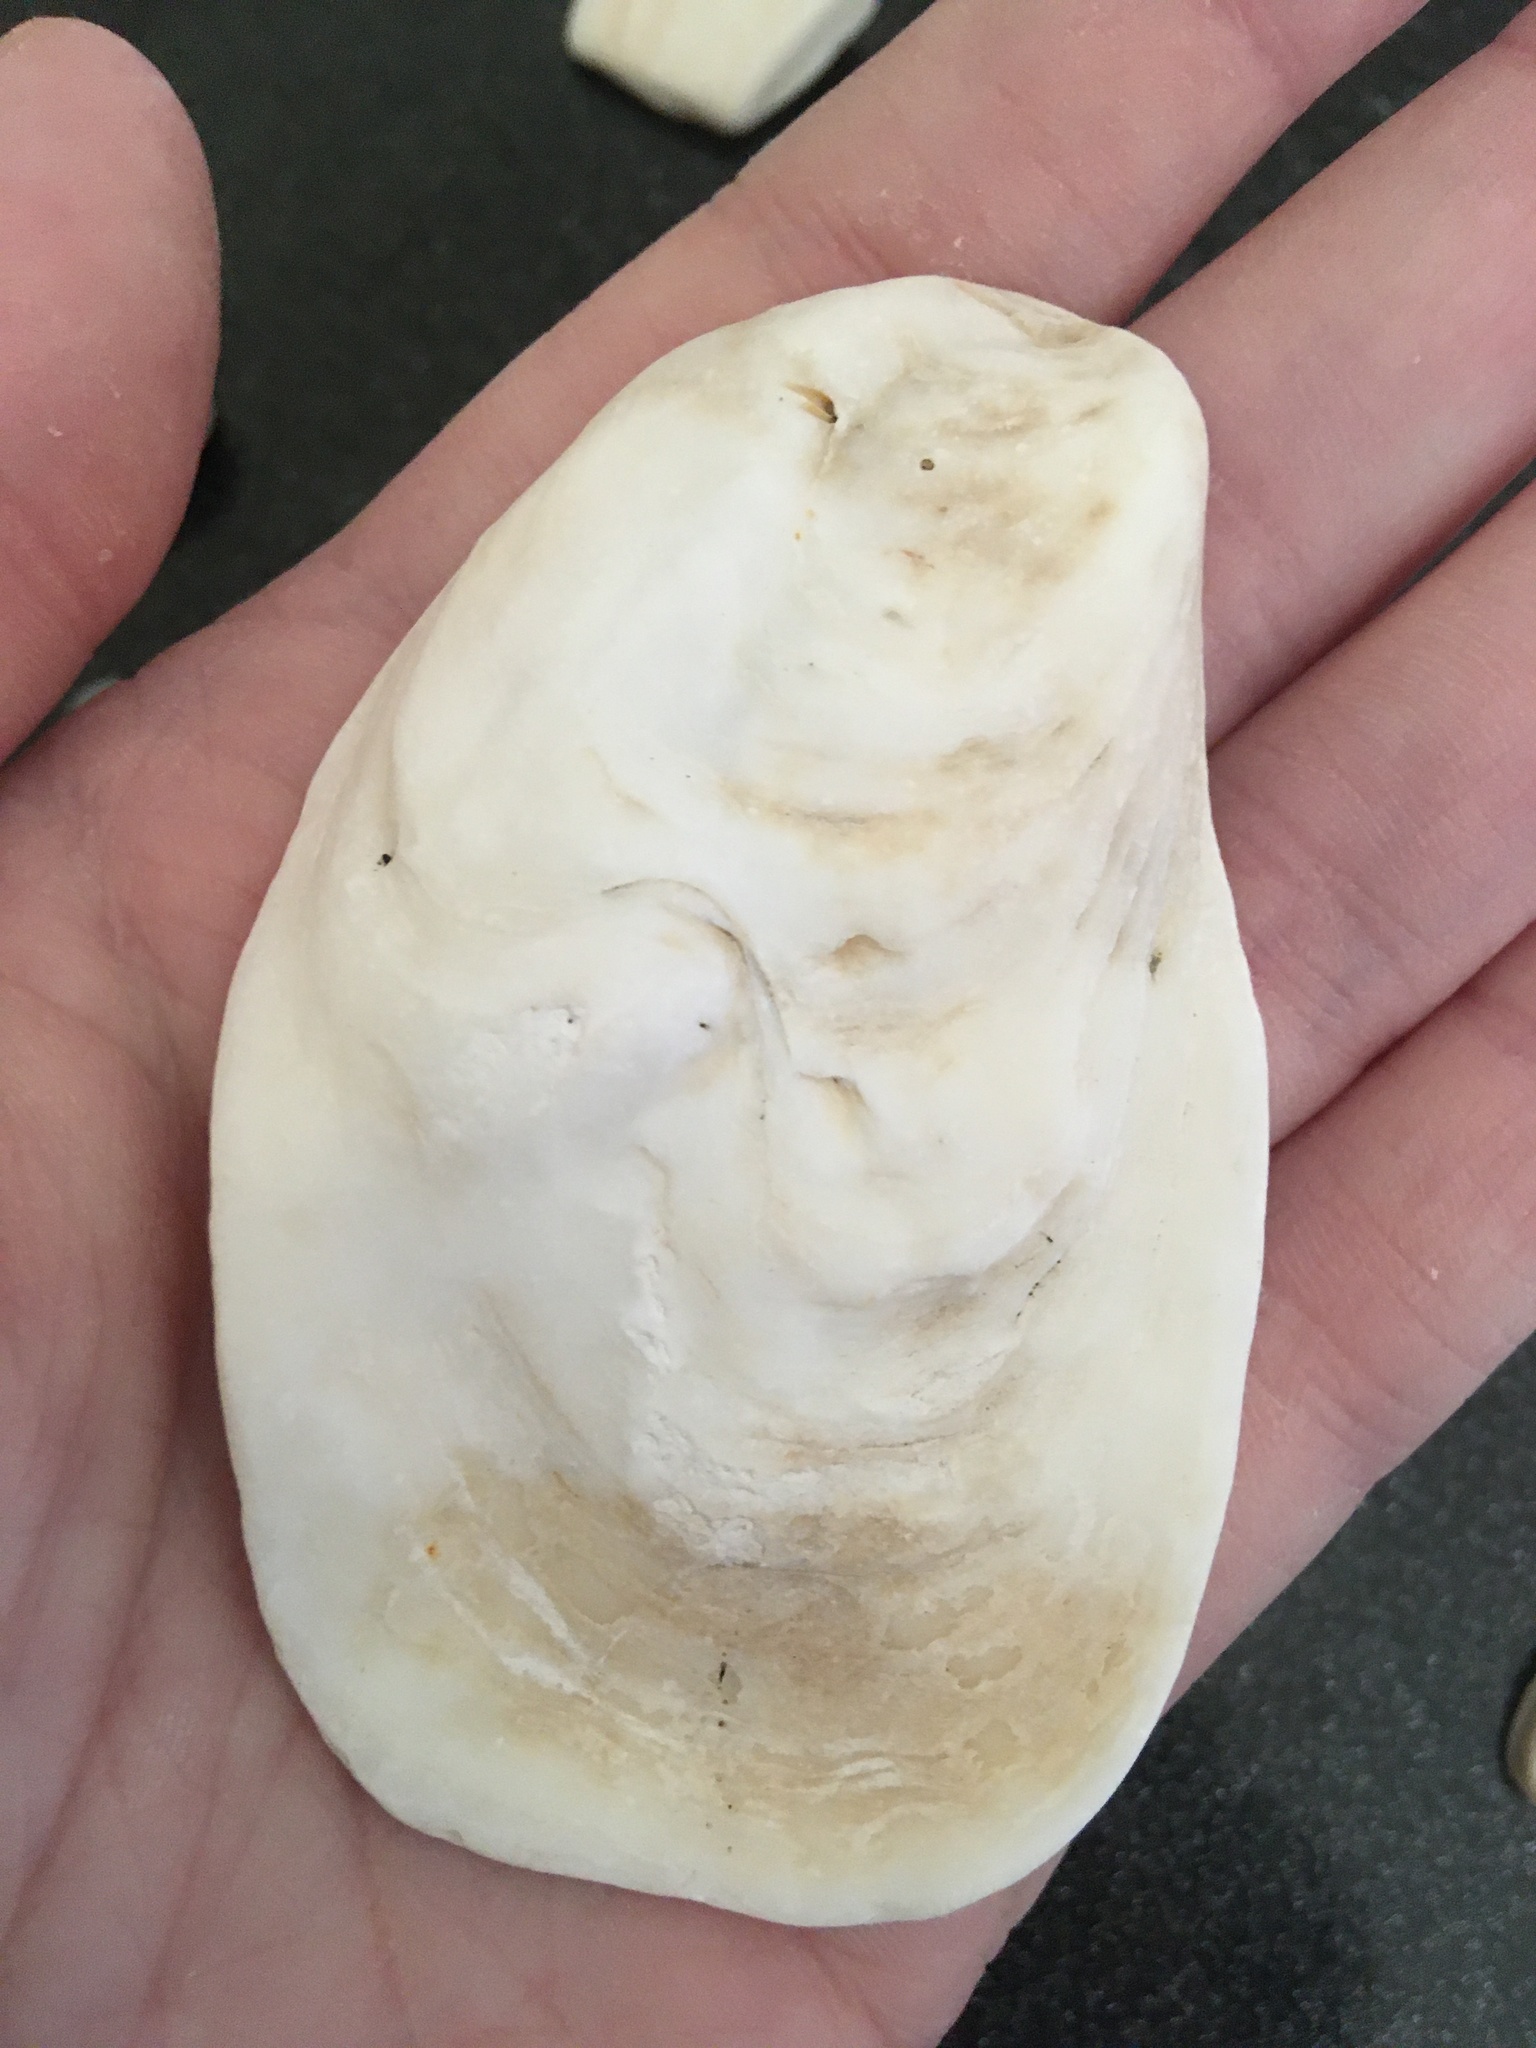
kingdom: Animalia
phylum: Mollusca
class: Bivalvia
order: Ostreida
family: Ostreidae
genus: Crassostrea
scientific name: Crassostrea virginica
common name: American oyster
